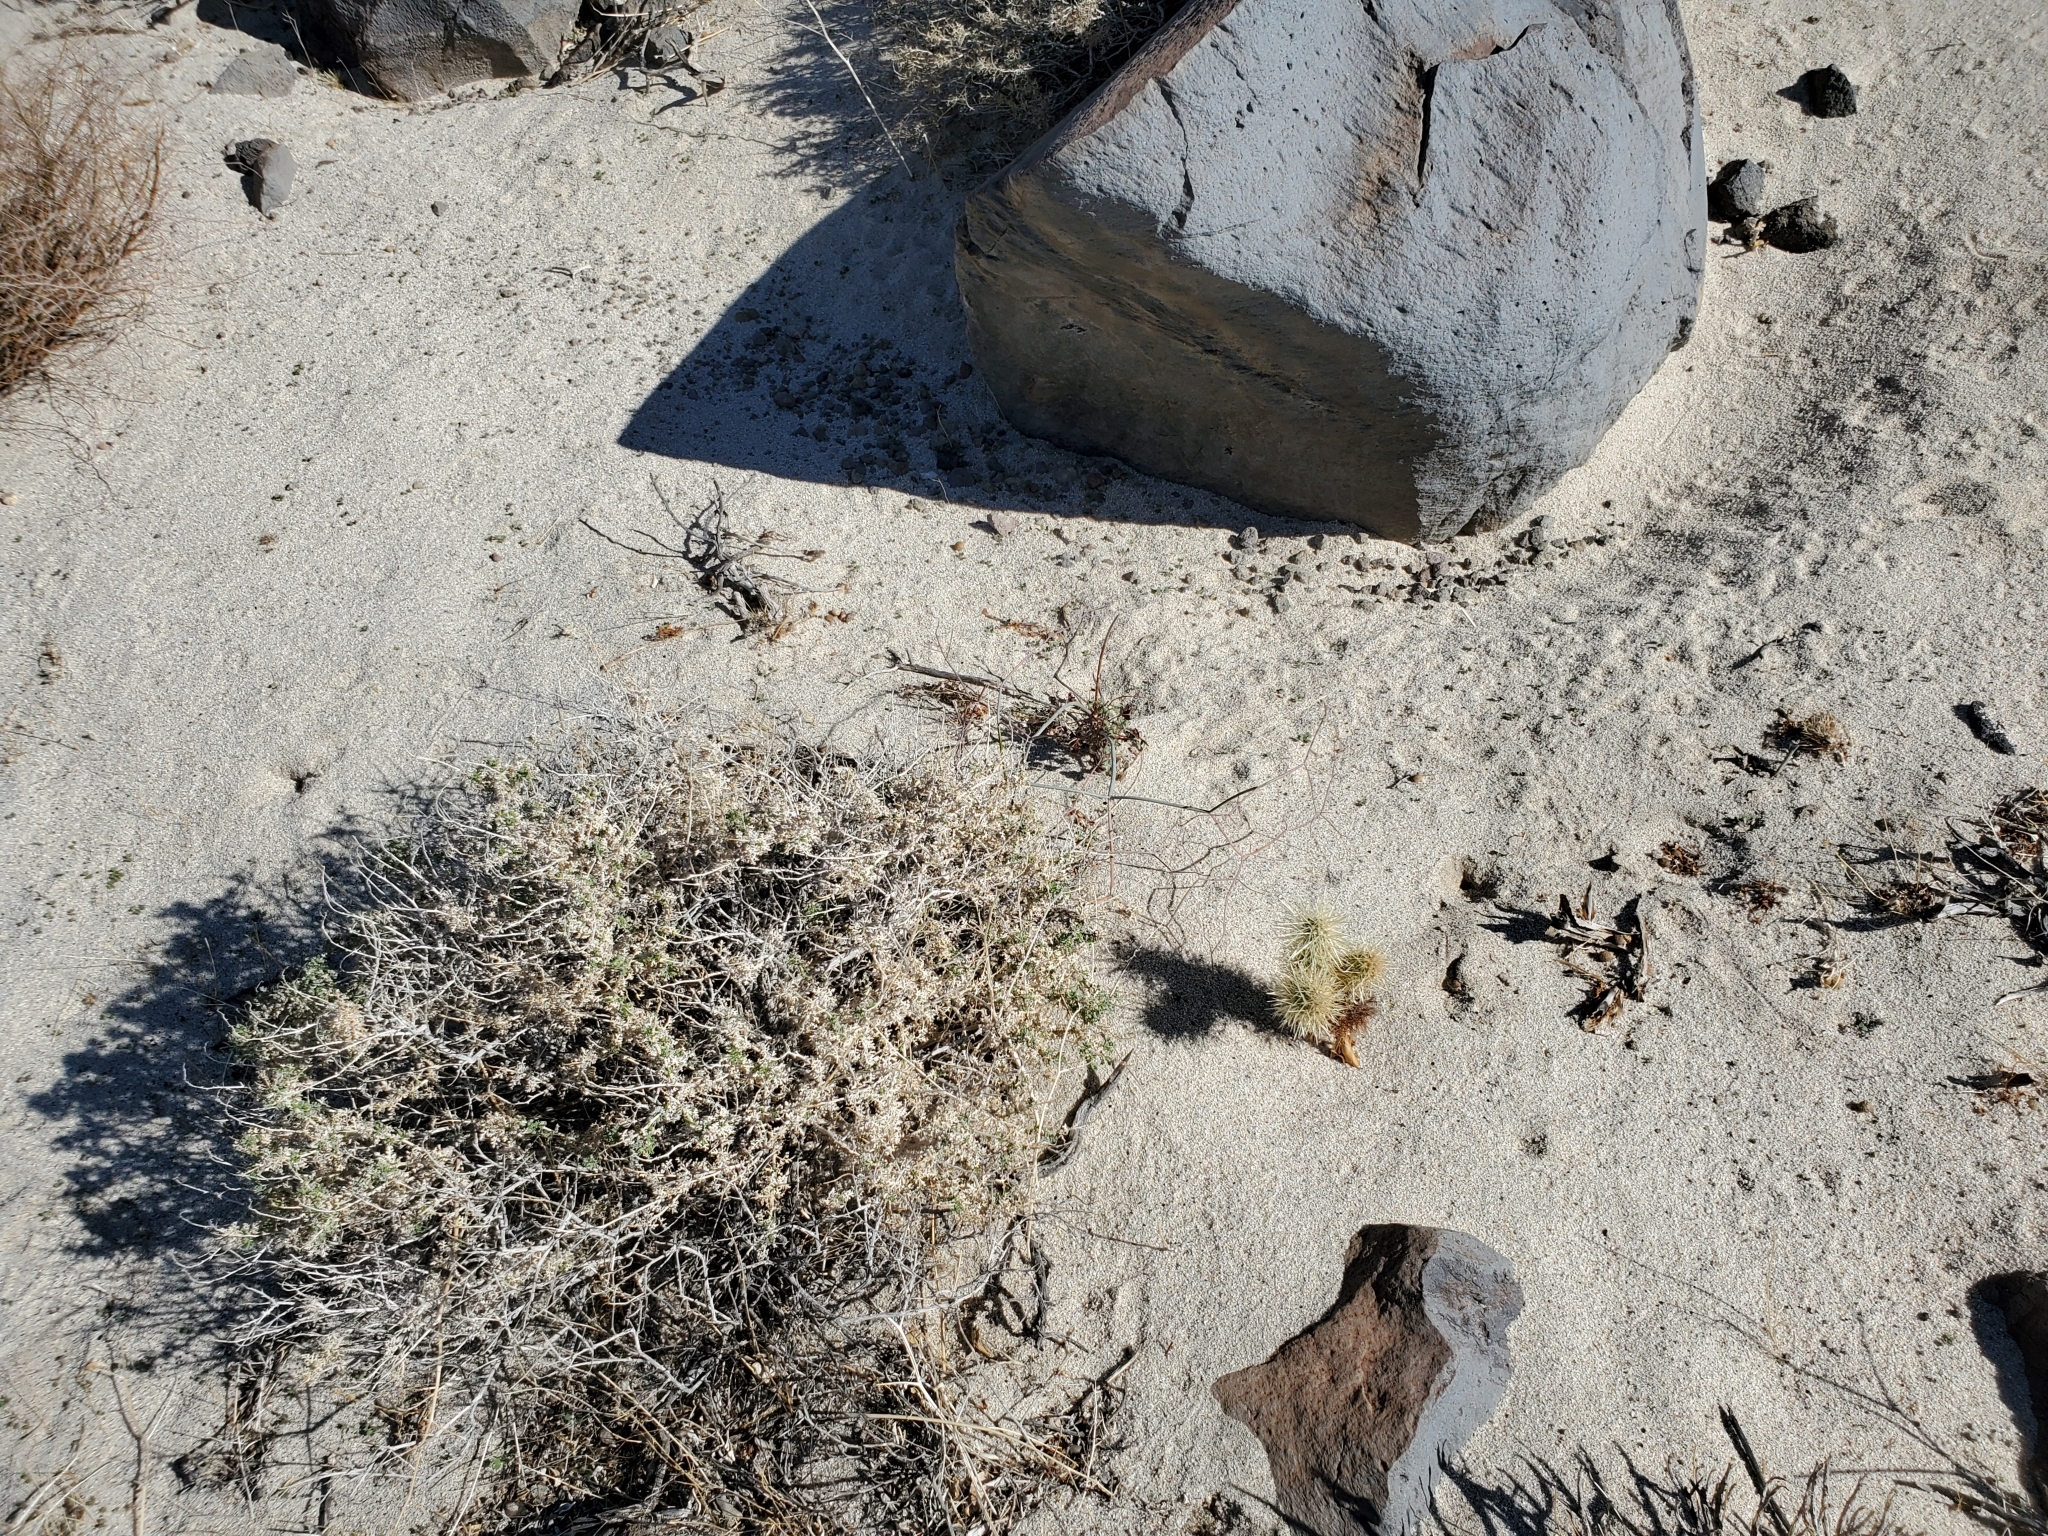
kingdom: Plantae
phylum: Tracheophyta
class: Magnoliopsida
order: Caryophyllales
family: Cactaceae
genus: Cylindropuntia
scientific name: Cylindropuntia fosbergii
